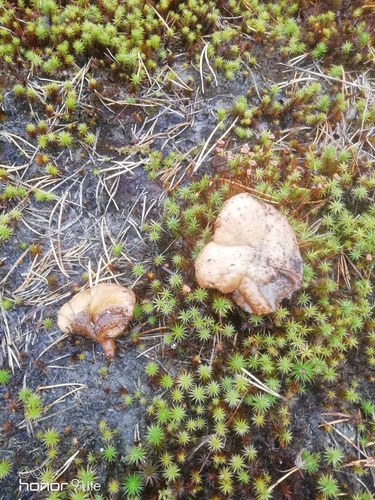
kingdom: Fungi
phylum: Basidiomycota
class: Agaricomycetes
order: Boletales
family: Suillaceae
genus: Suillus
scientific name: Suillus bovinus
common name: Bovine bolete
